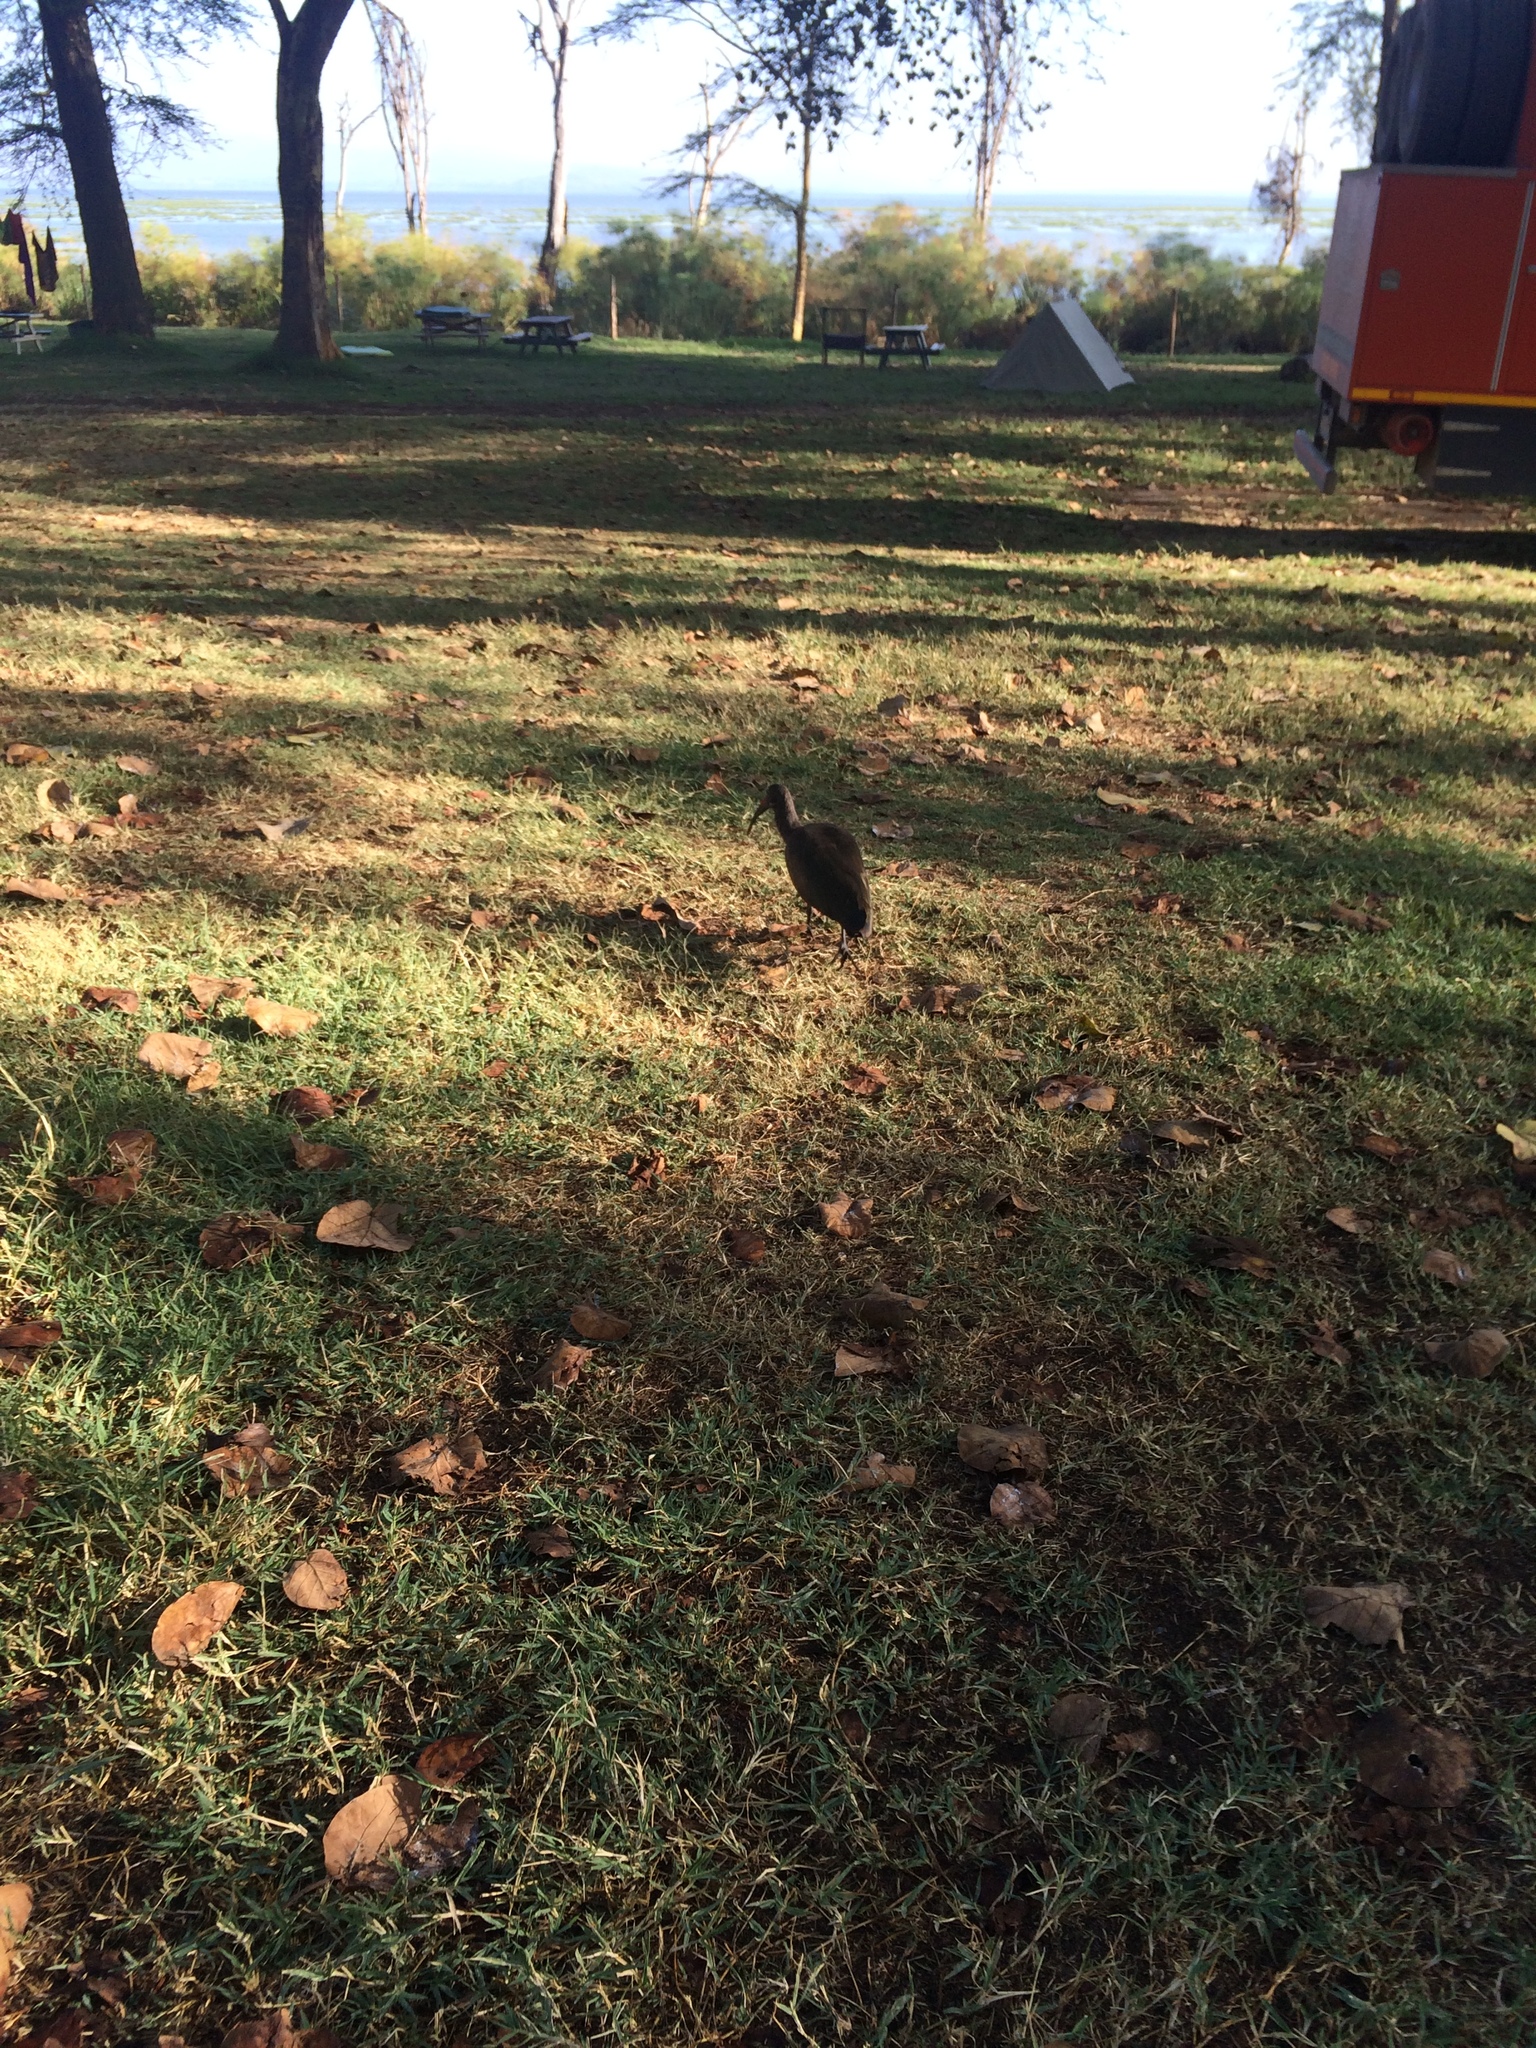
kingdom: Animalia
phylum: Chordata
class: Aves
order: Pelecaniformes
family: Threskiornithidae
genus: Bostrychia
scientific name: Bostrychia hagedash
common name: Hadada ibis
